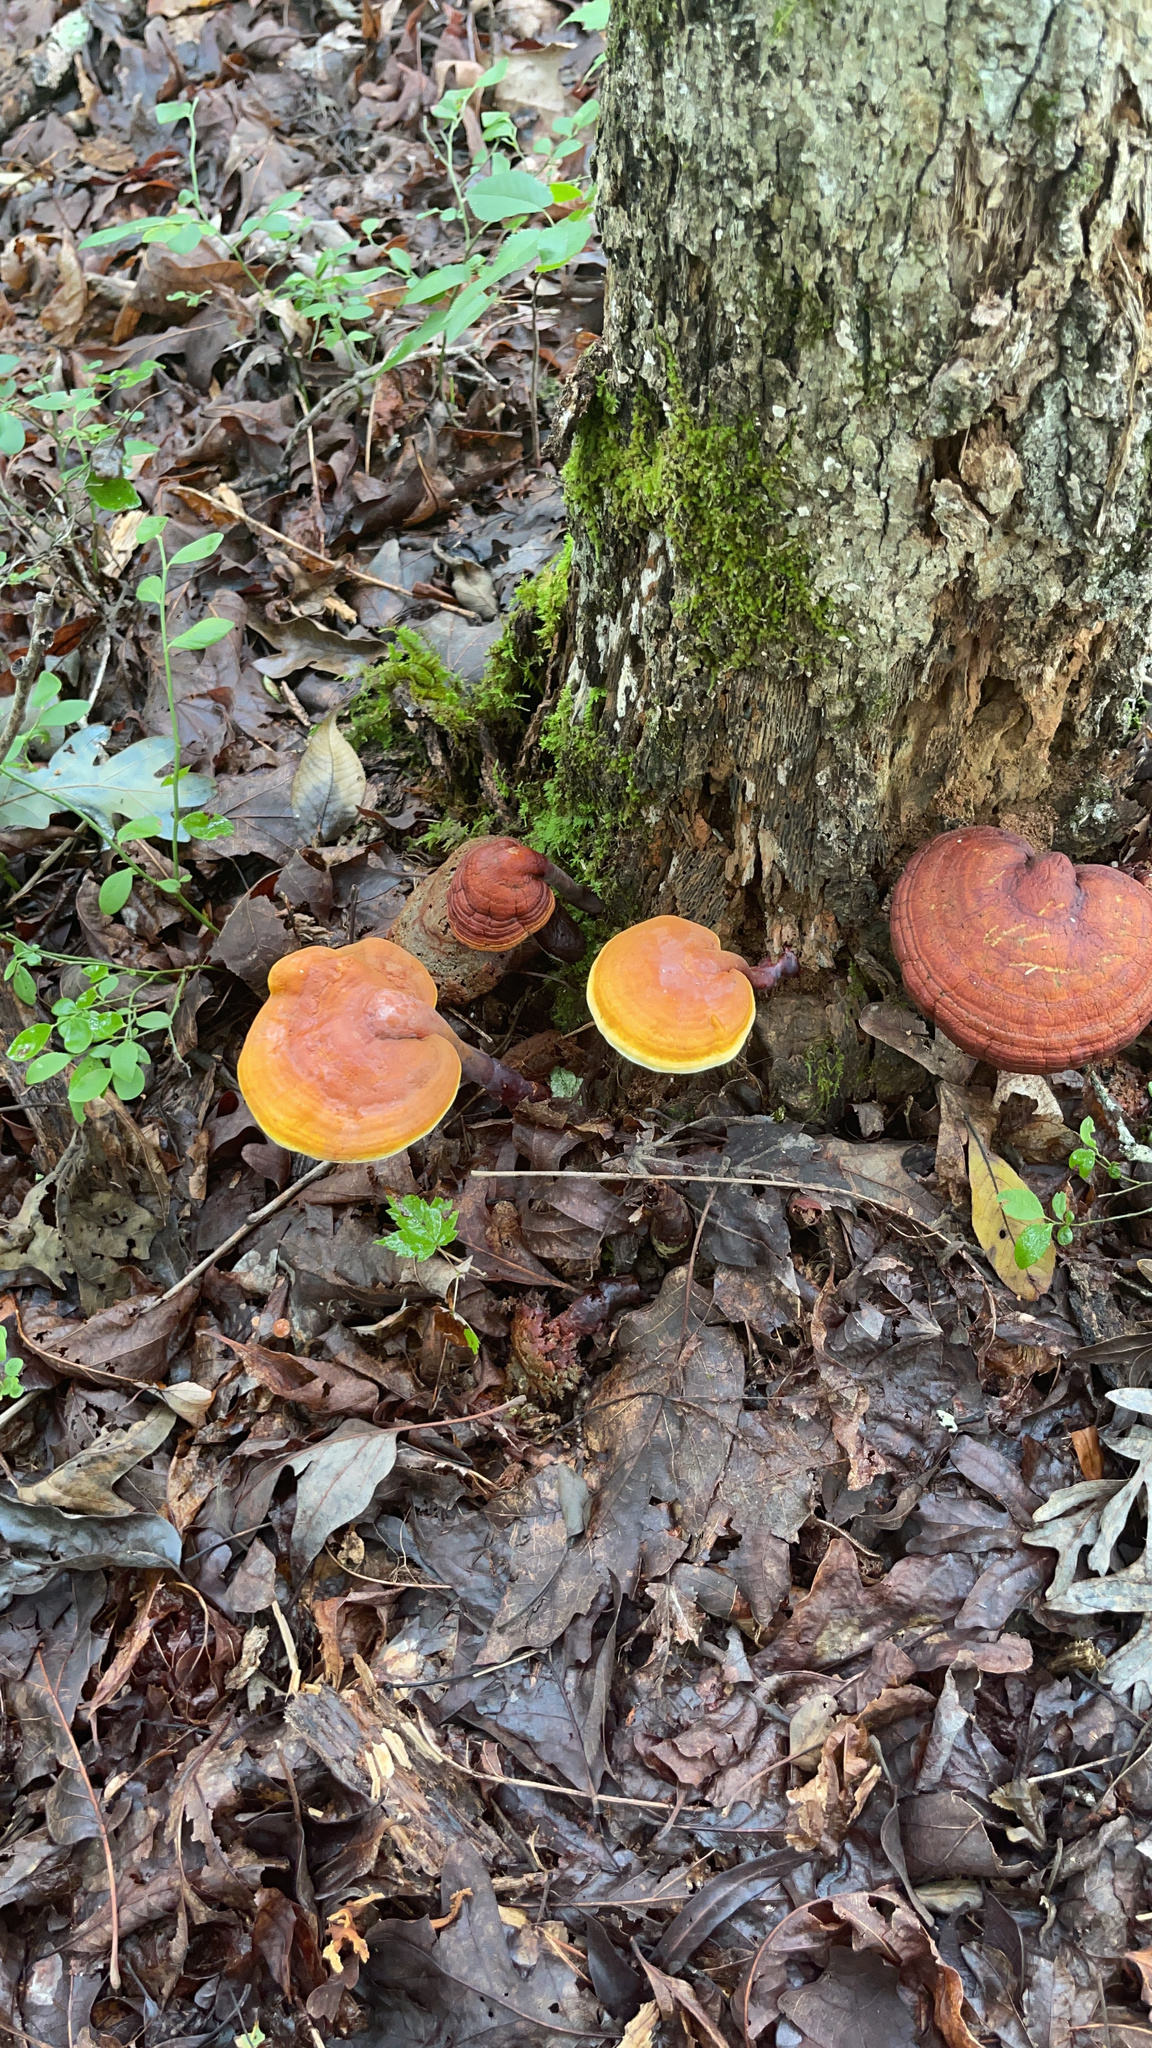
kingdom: Fungi
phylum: Basidiomycota
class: Agaricomycetes
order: Polyporales
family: Polyporaceae
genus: Ganoderma
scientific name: Ganoderma curtisii
